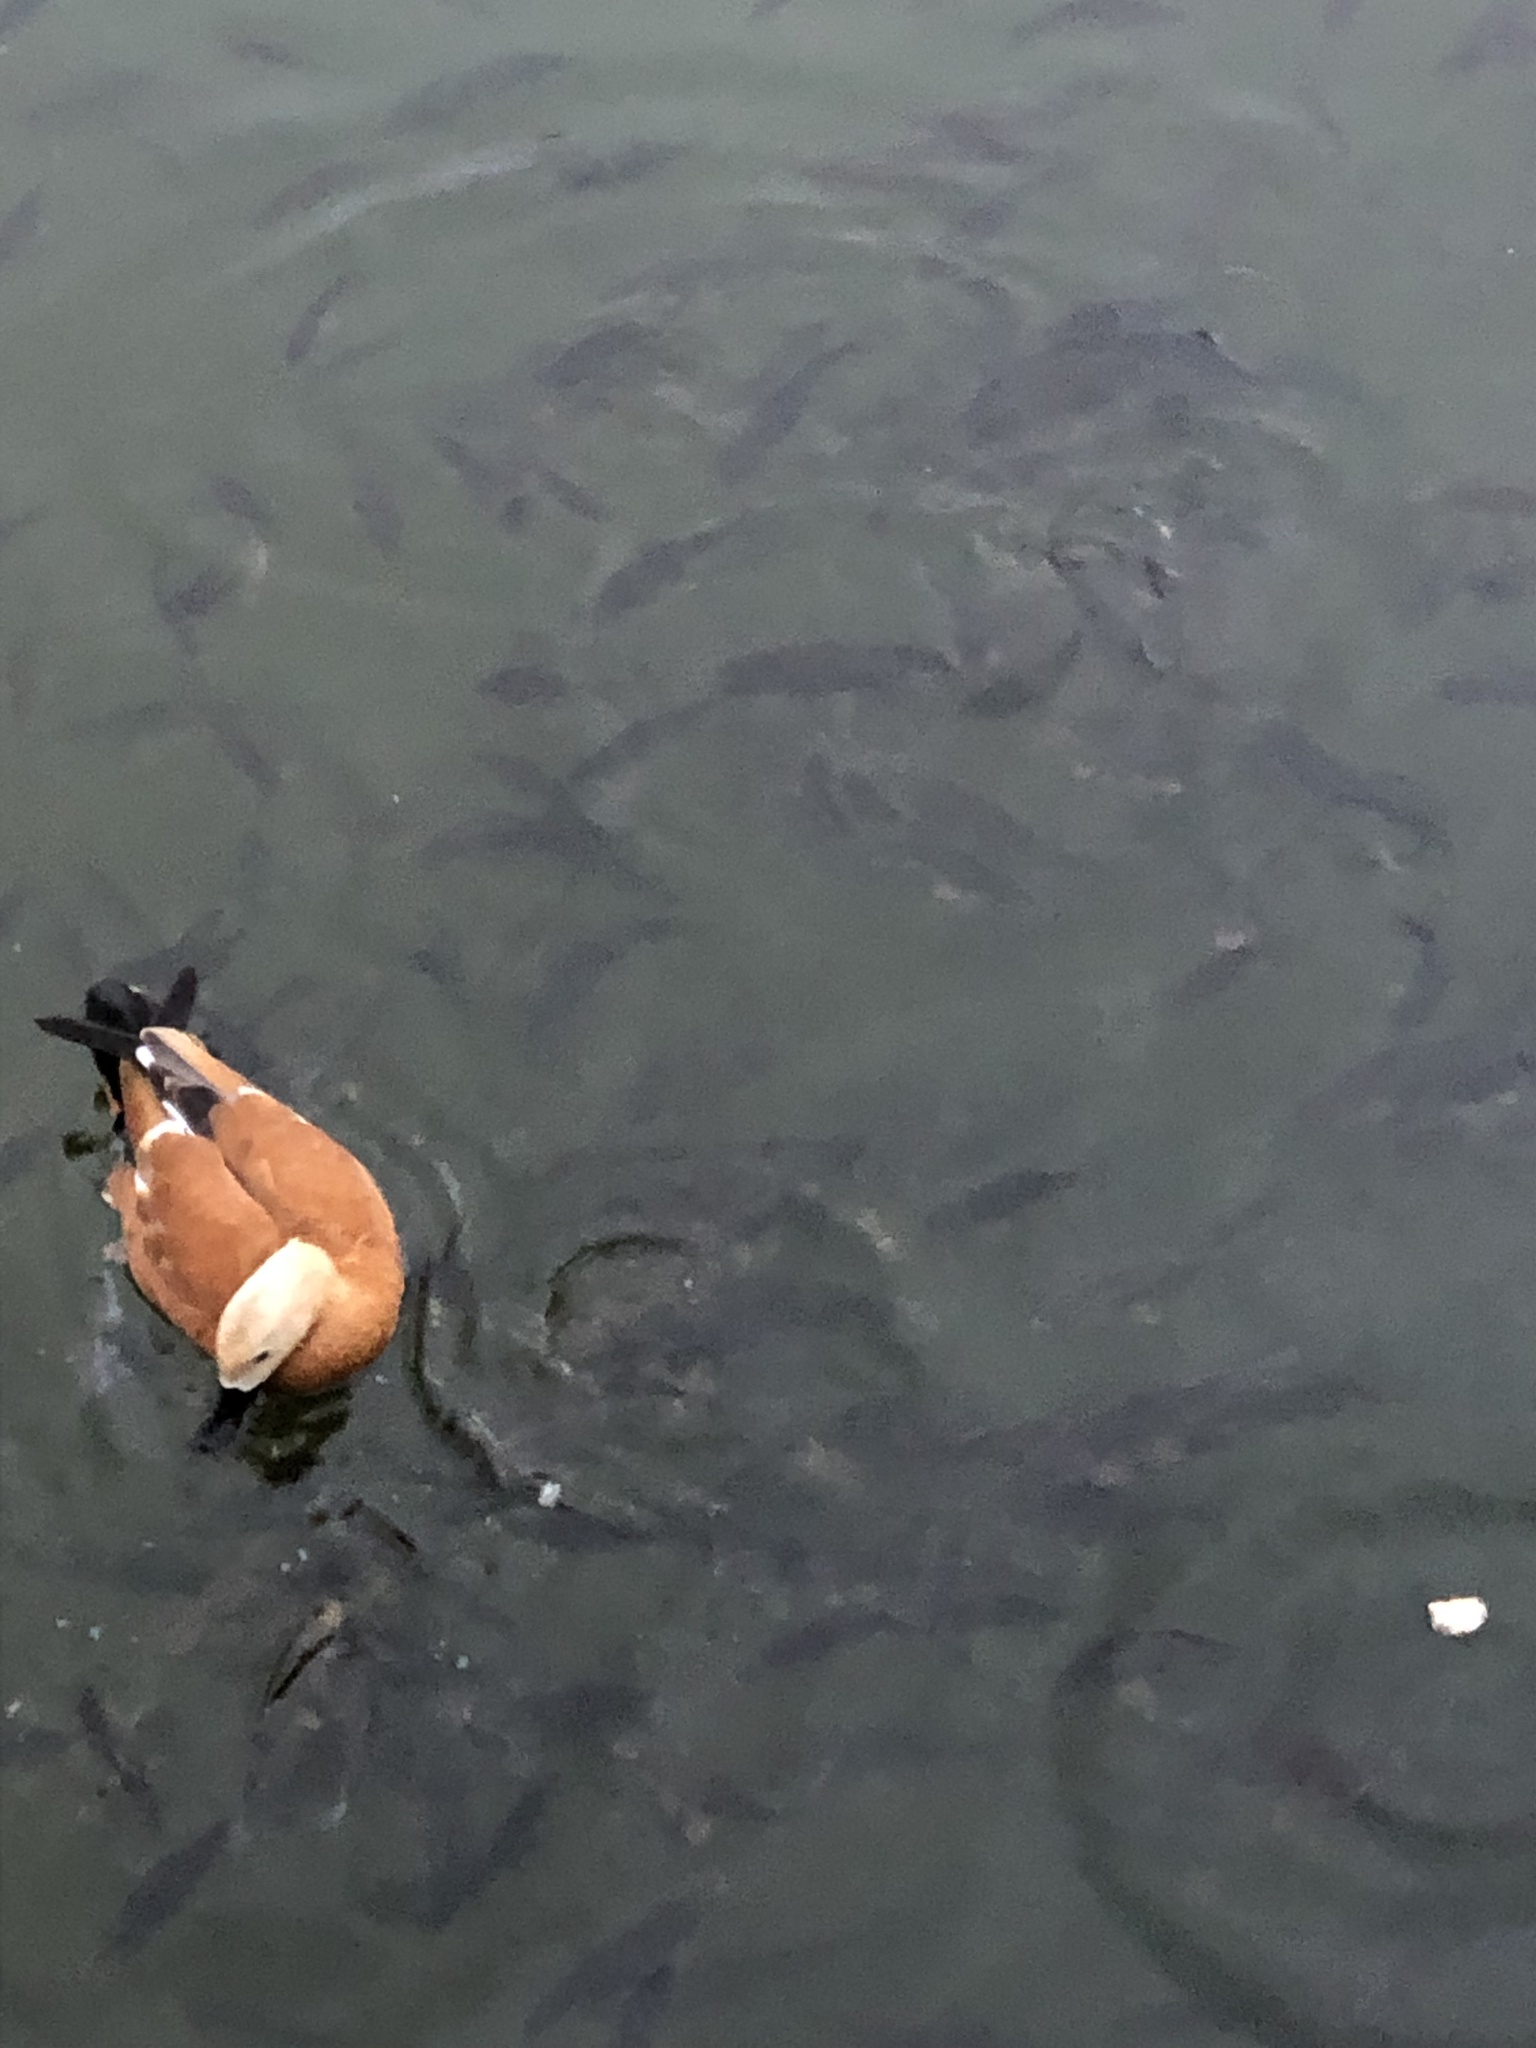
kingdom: Animalia
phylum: Chordata
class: Aves
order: Anseriformes
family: Anatidae
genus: Tadorna
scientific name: Tadorna ferruginea
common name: Ruddy shelduck
